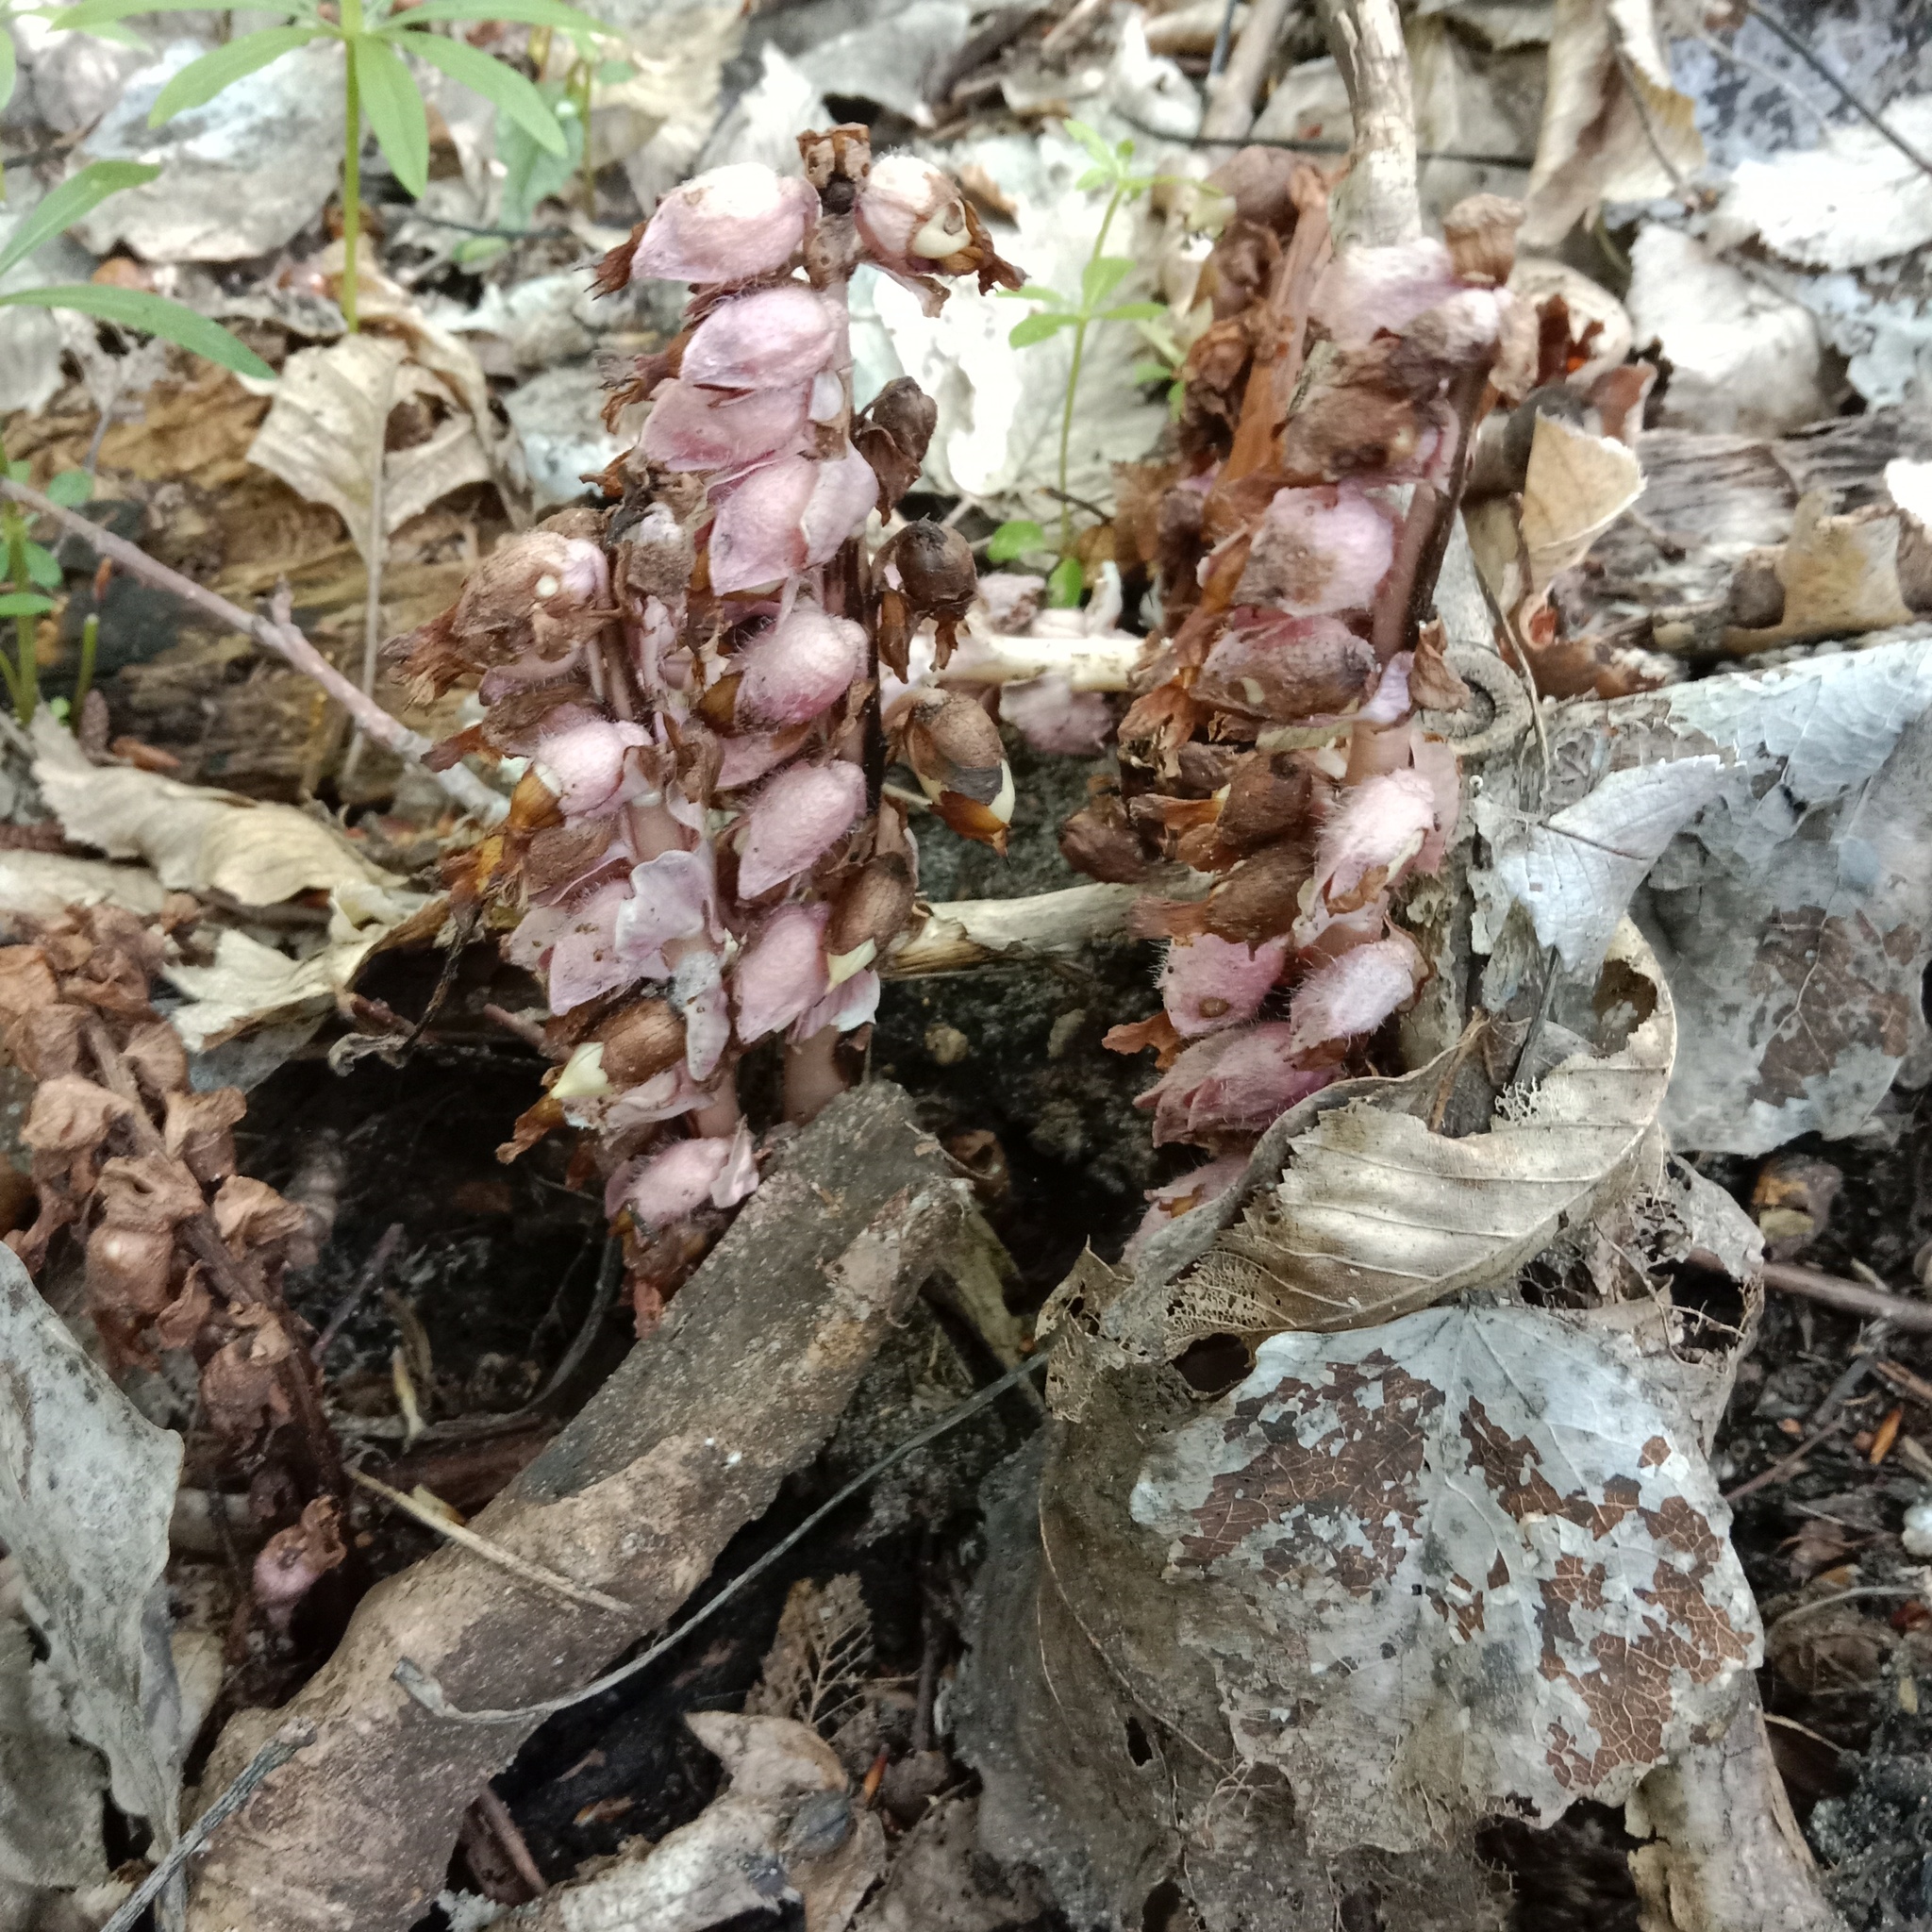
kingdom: Plantae
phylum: Tracheophyta
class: Magnoliopsida
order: Lamiales
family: Orobanchaceae
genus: Lathraea
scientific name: Lathraea squamaria
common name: Toothwort
